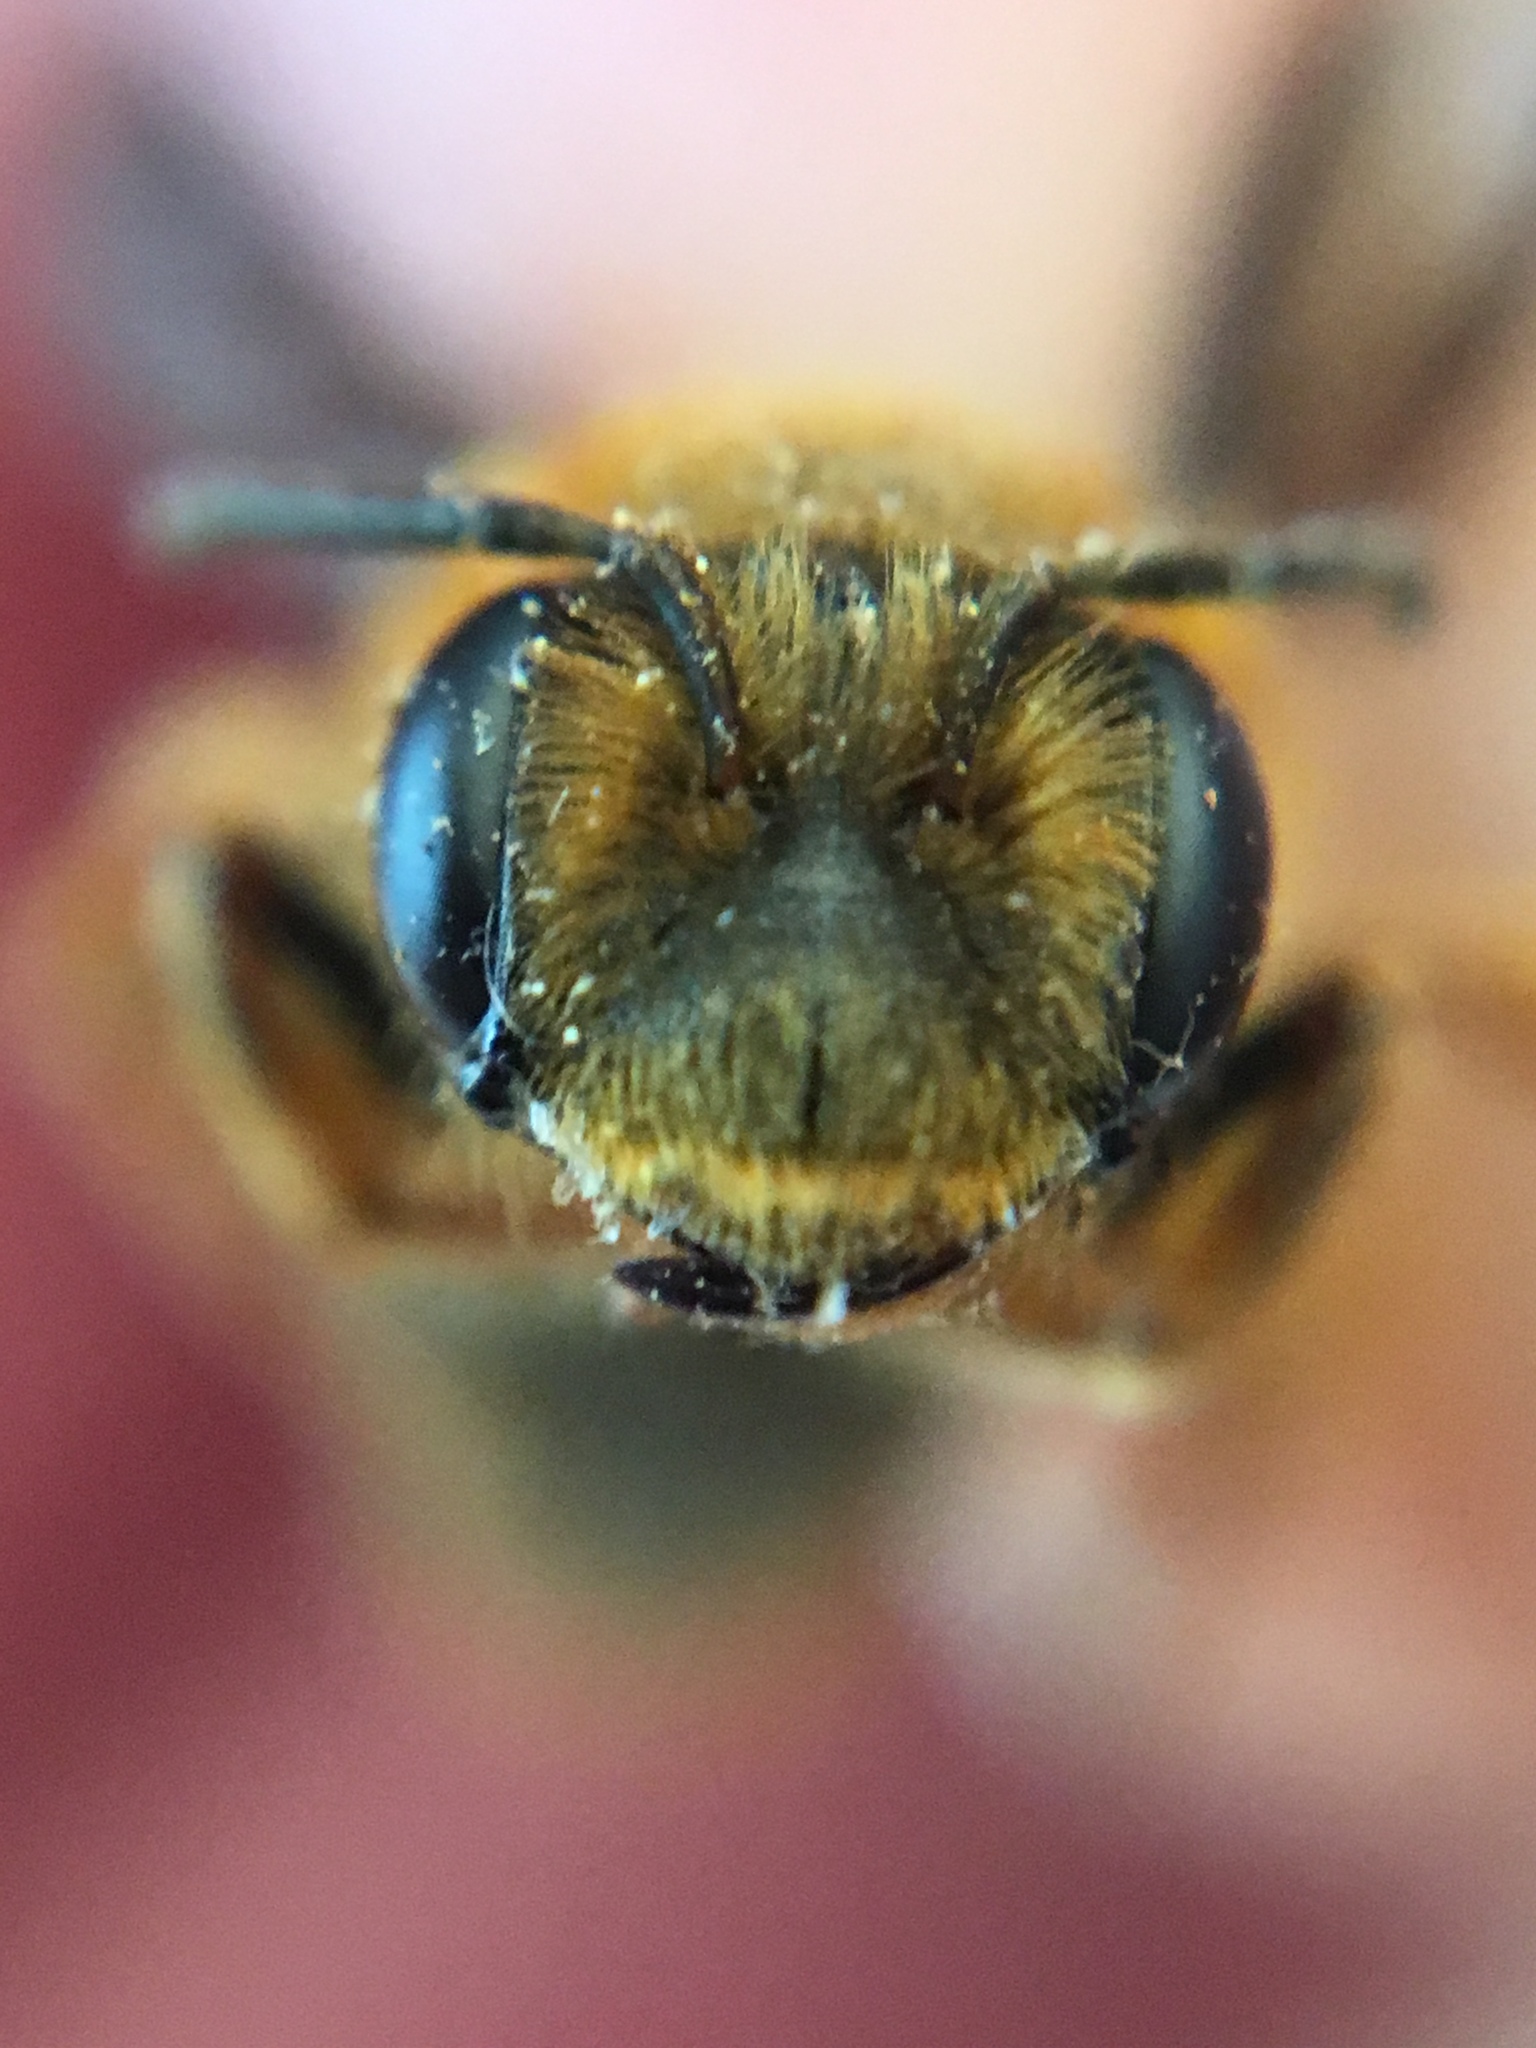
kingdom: Animalia
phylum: Arthropoda
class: Insecta
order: Hymenoptera
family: Andrenidae
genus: Andrena
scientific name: Andrena obscuripennis
